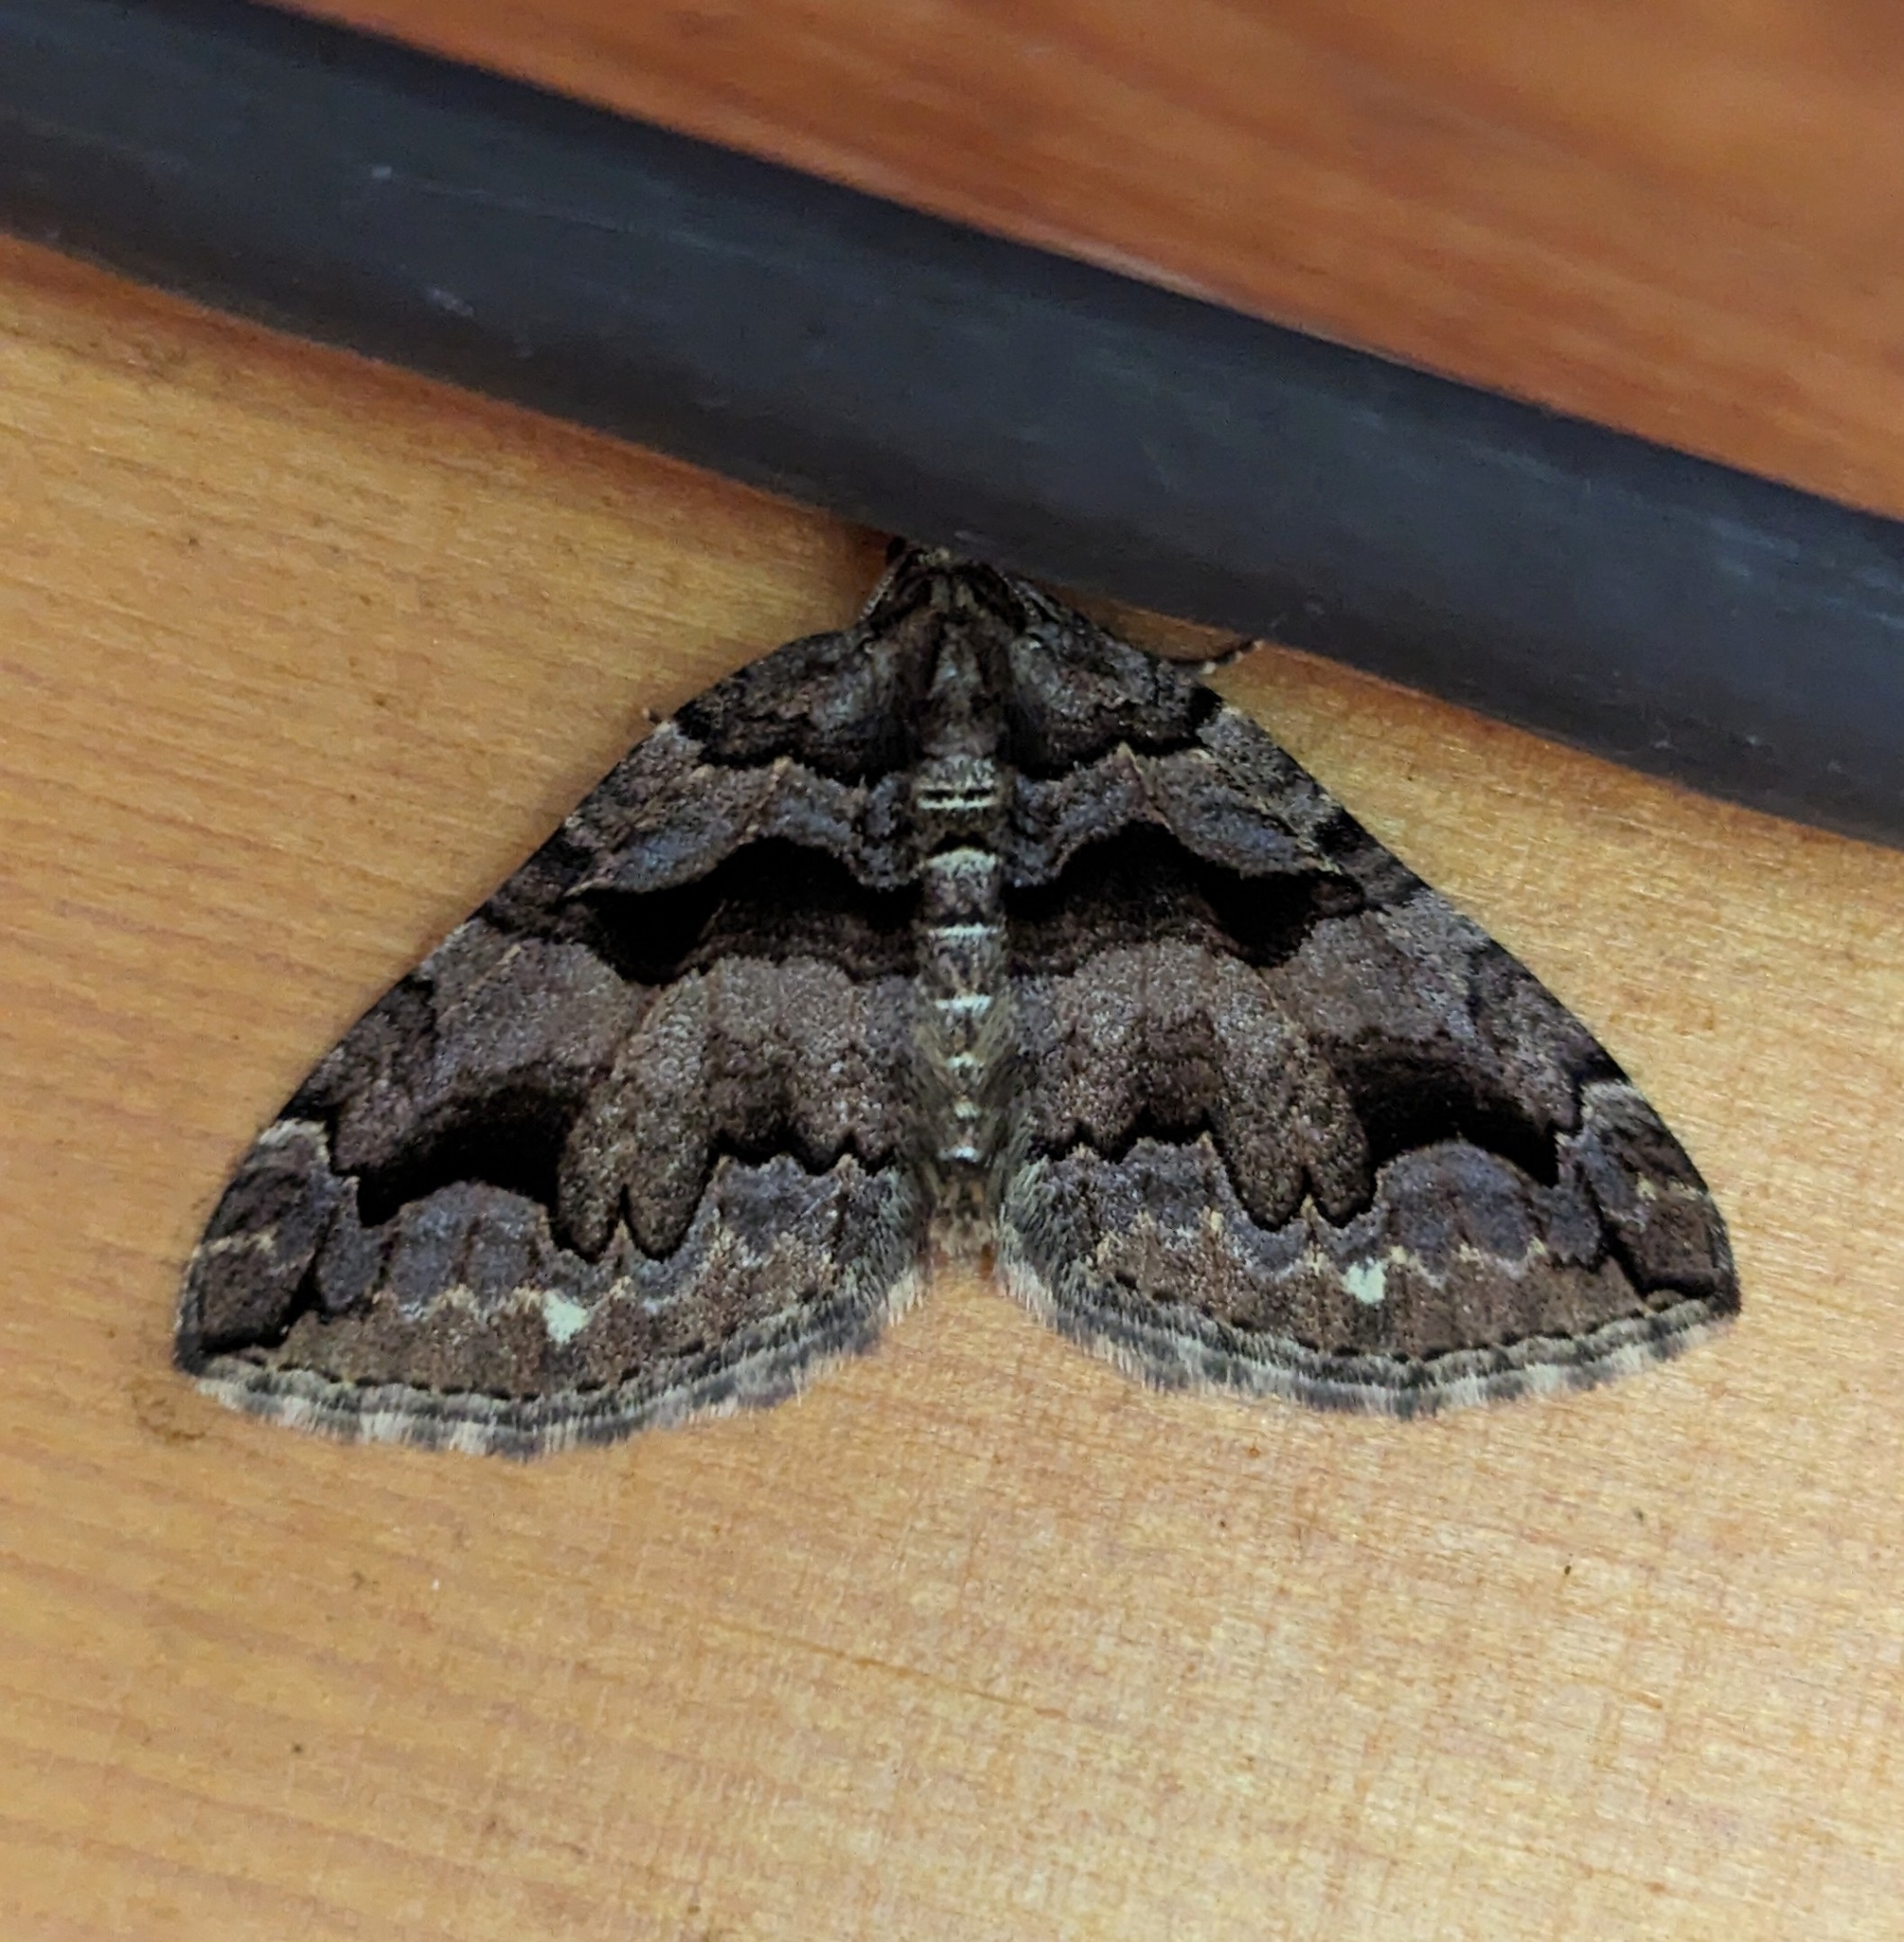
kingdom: Animalia
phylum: Arthropoda
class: Insecta
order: Lepidoptera
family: Geometridae
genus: Anticlea
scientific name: Anticlea vasiliata
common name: Variable carpet
